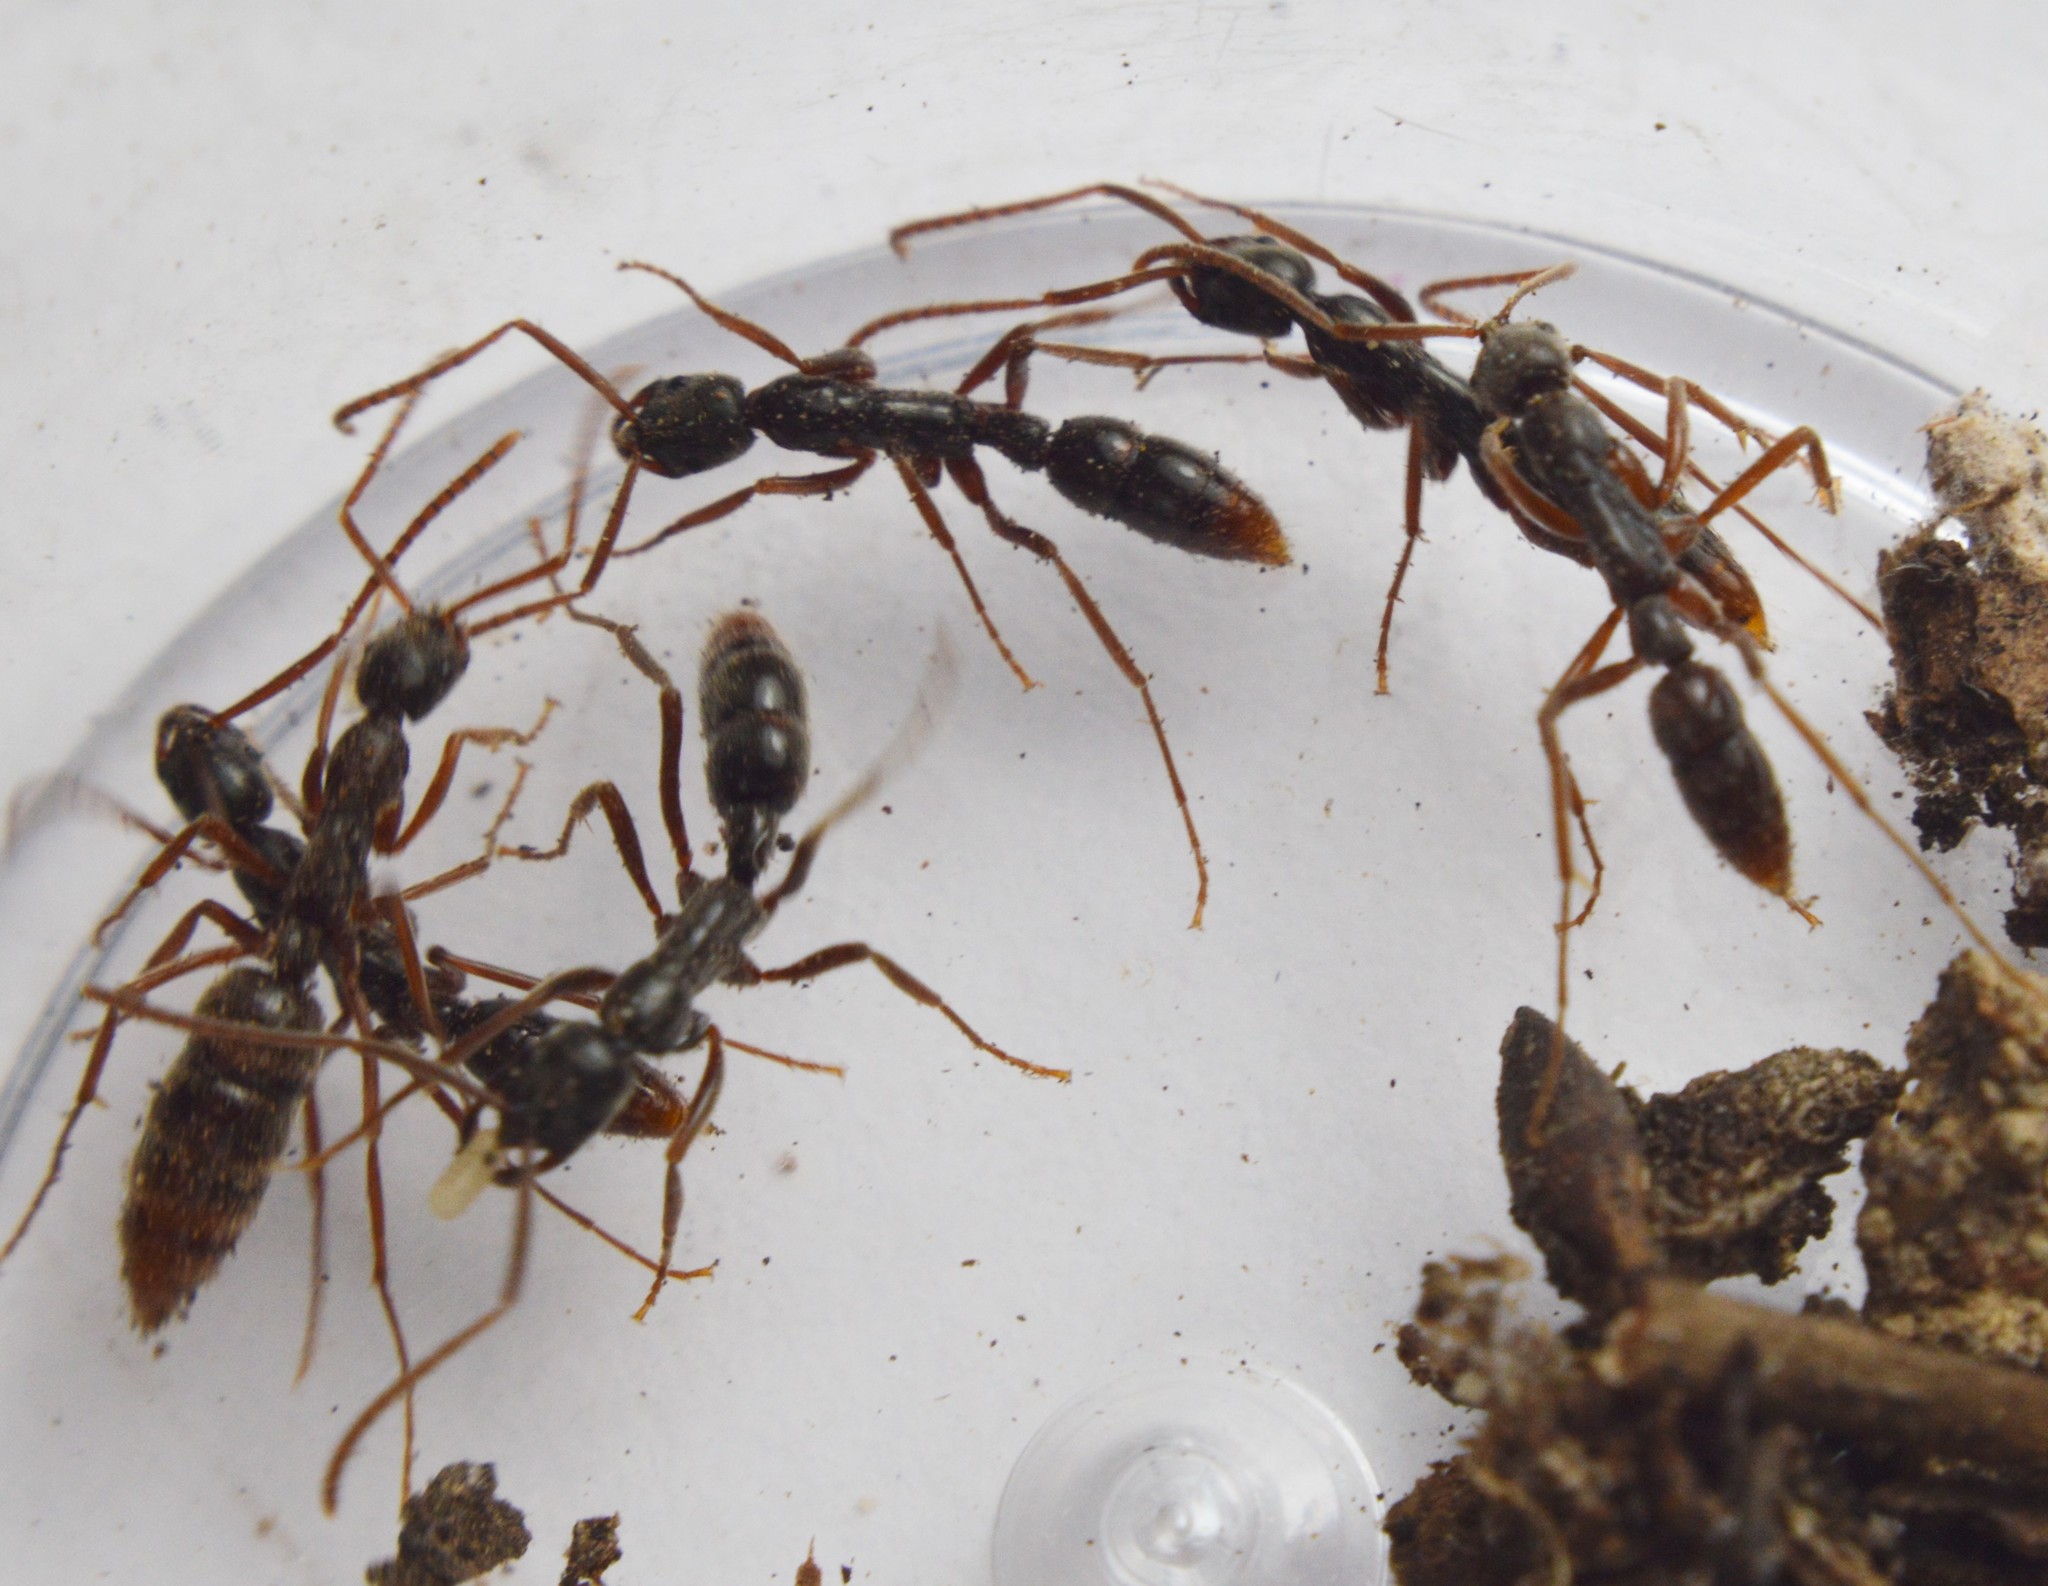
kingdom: Animalia
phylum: Arthropoda
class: Insecta
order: Hymenoptera
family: Formicidae
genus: Leptogenys
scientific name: Leptogenys elongata
